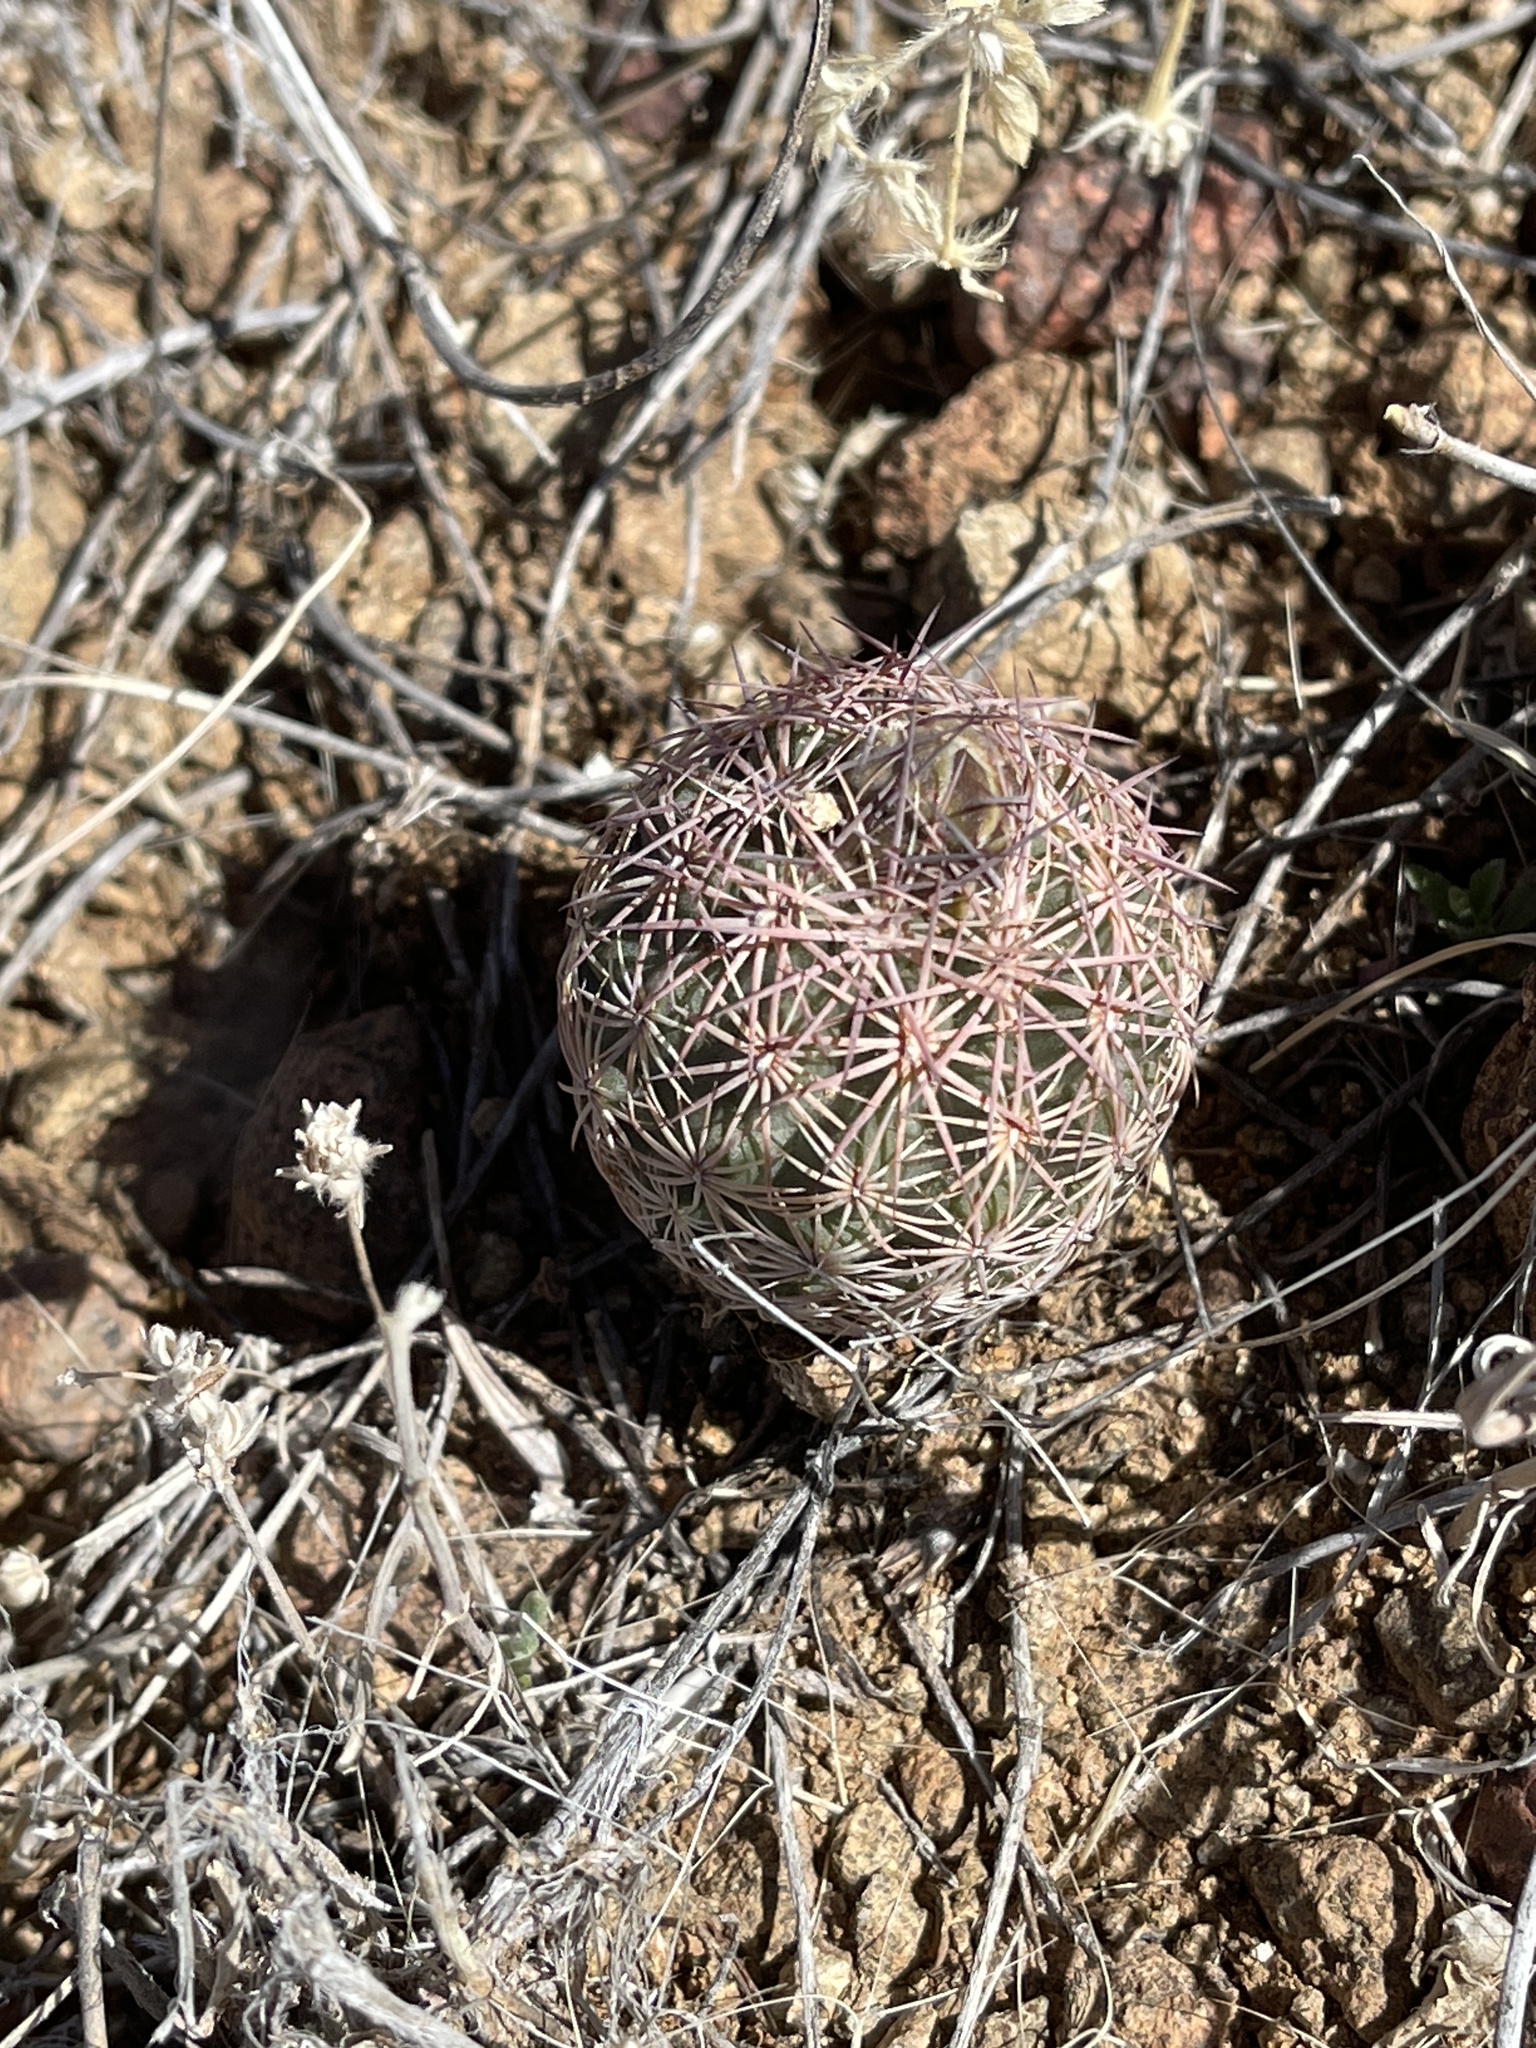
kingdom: Plantae
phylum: Tracheophyta
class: Magnoliopsida
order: Caryophyllales
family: Cactaceae
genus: Sclerocactus
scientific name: Sclerocactus intertextus
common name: White fish-hook cactus
